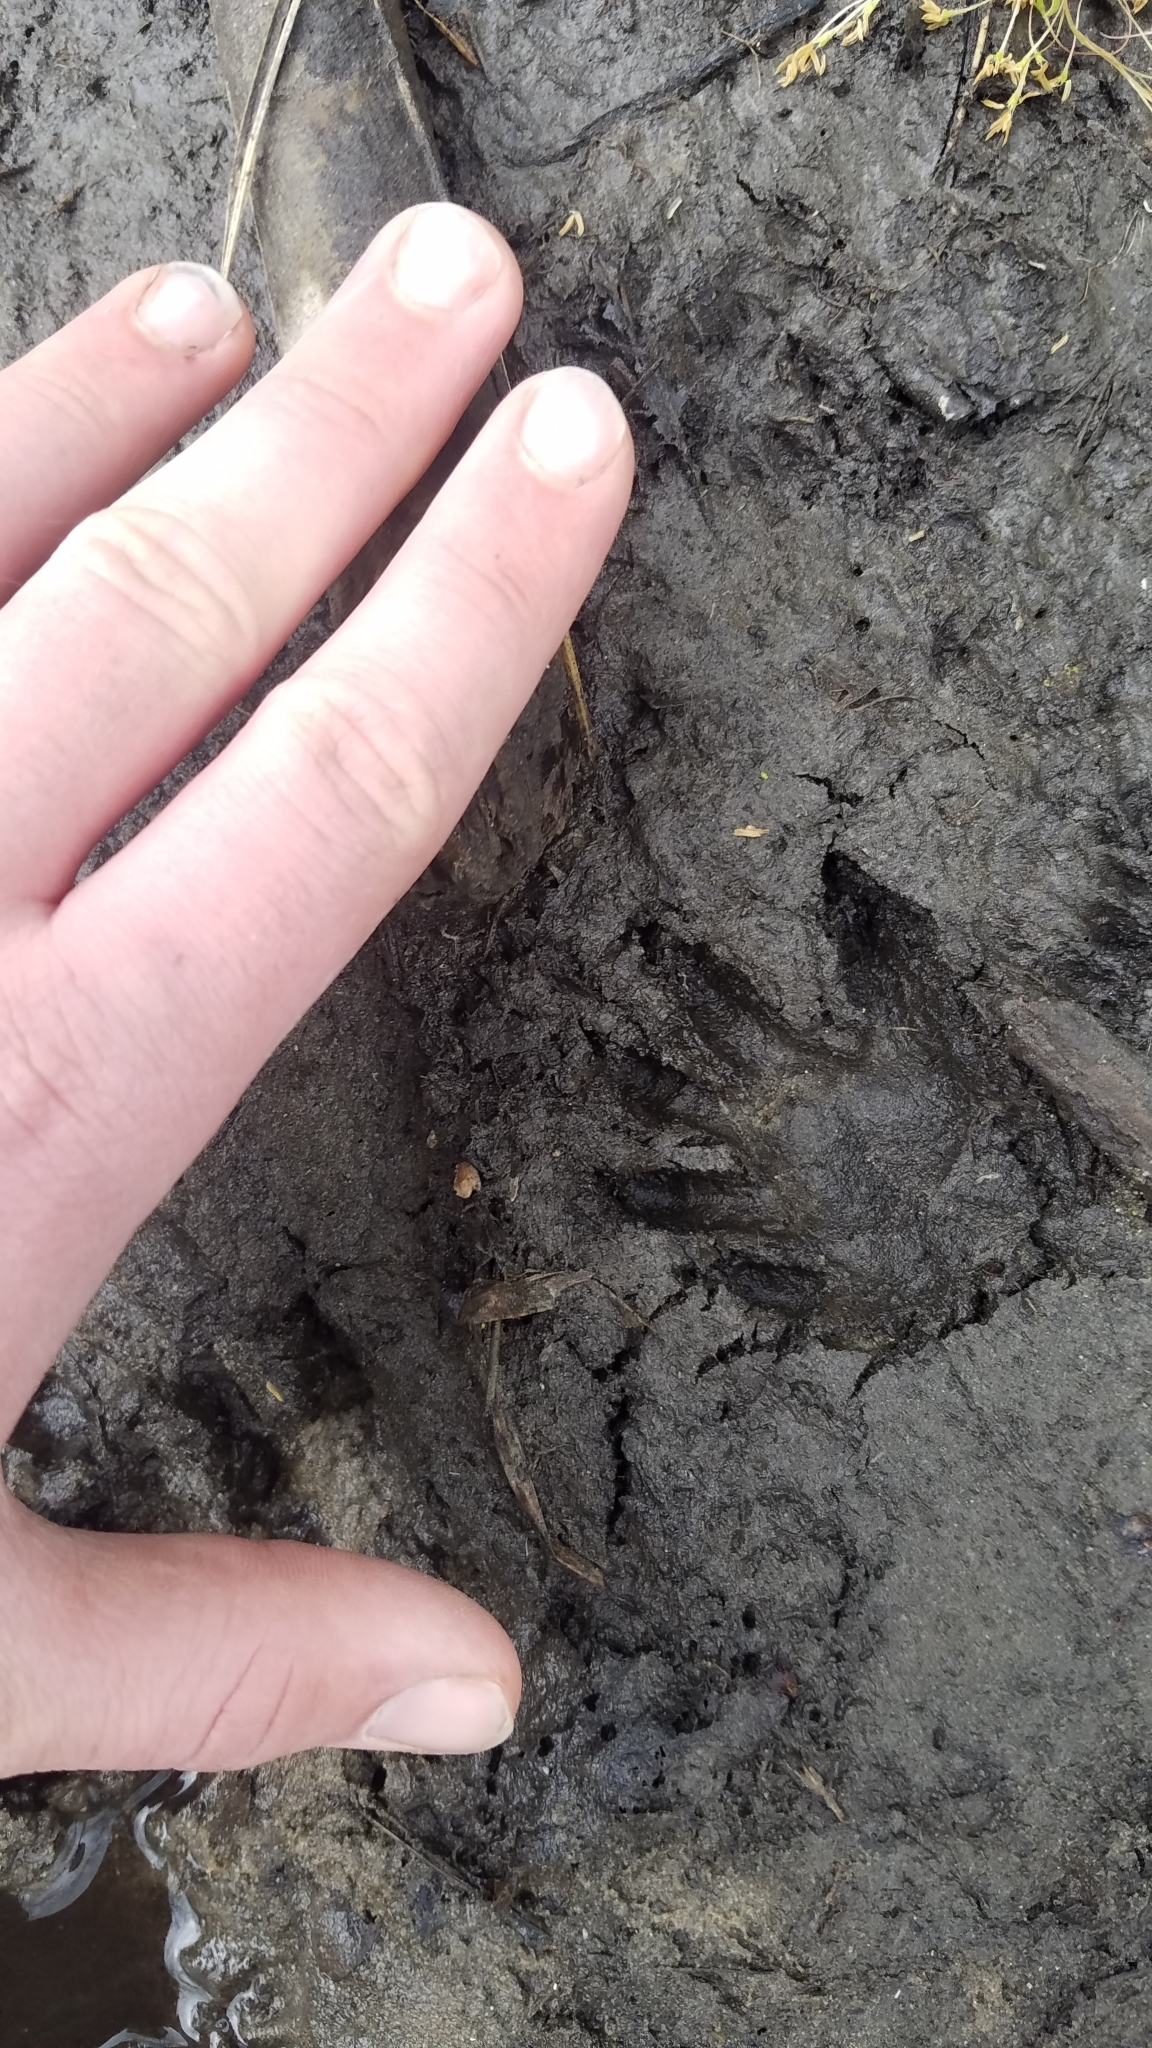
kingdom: Animalia
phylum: Chordata
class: Mammalia
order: Carnivora
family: Procyonidae
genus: Procyon
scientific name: Procyon lotor
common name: Raccoon
